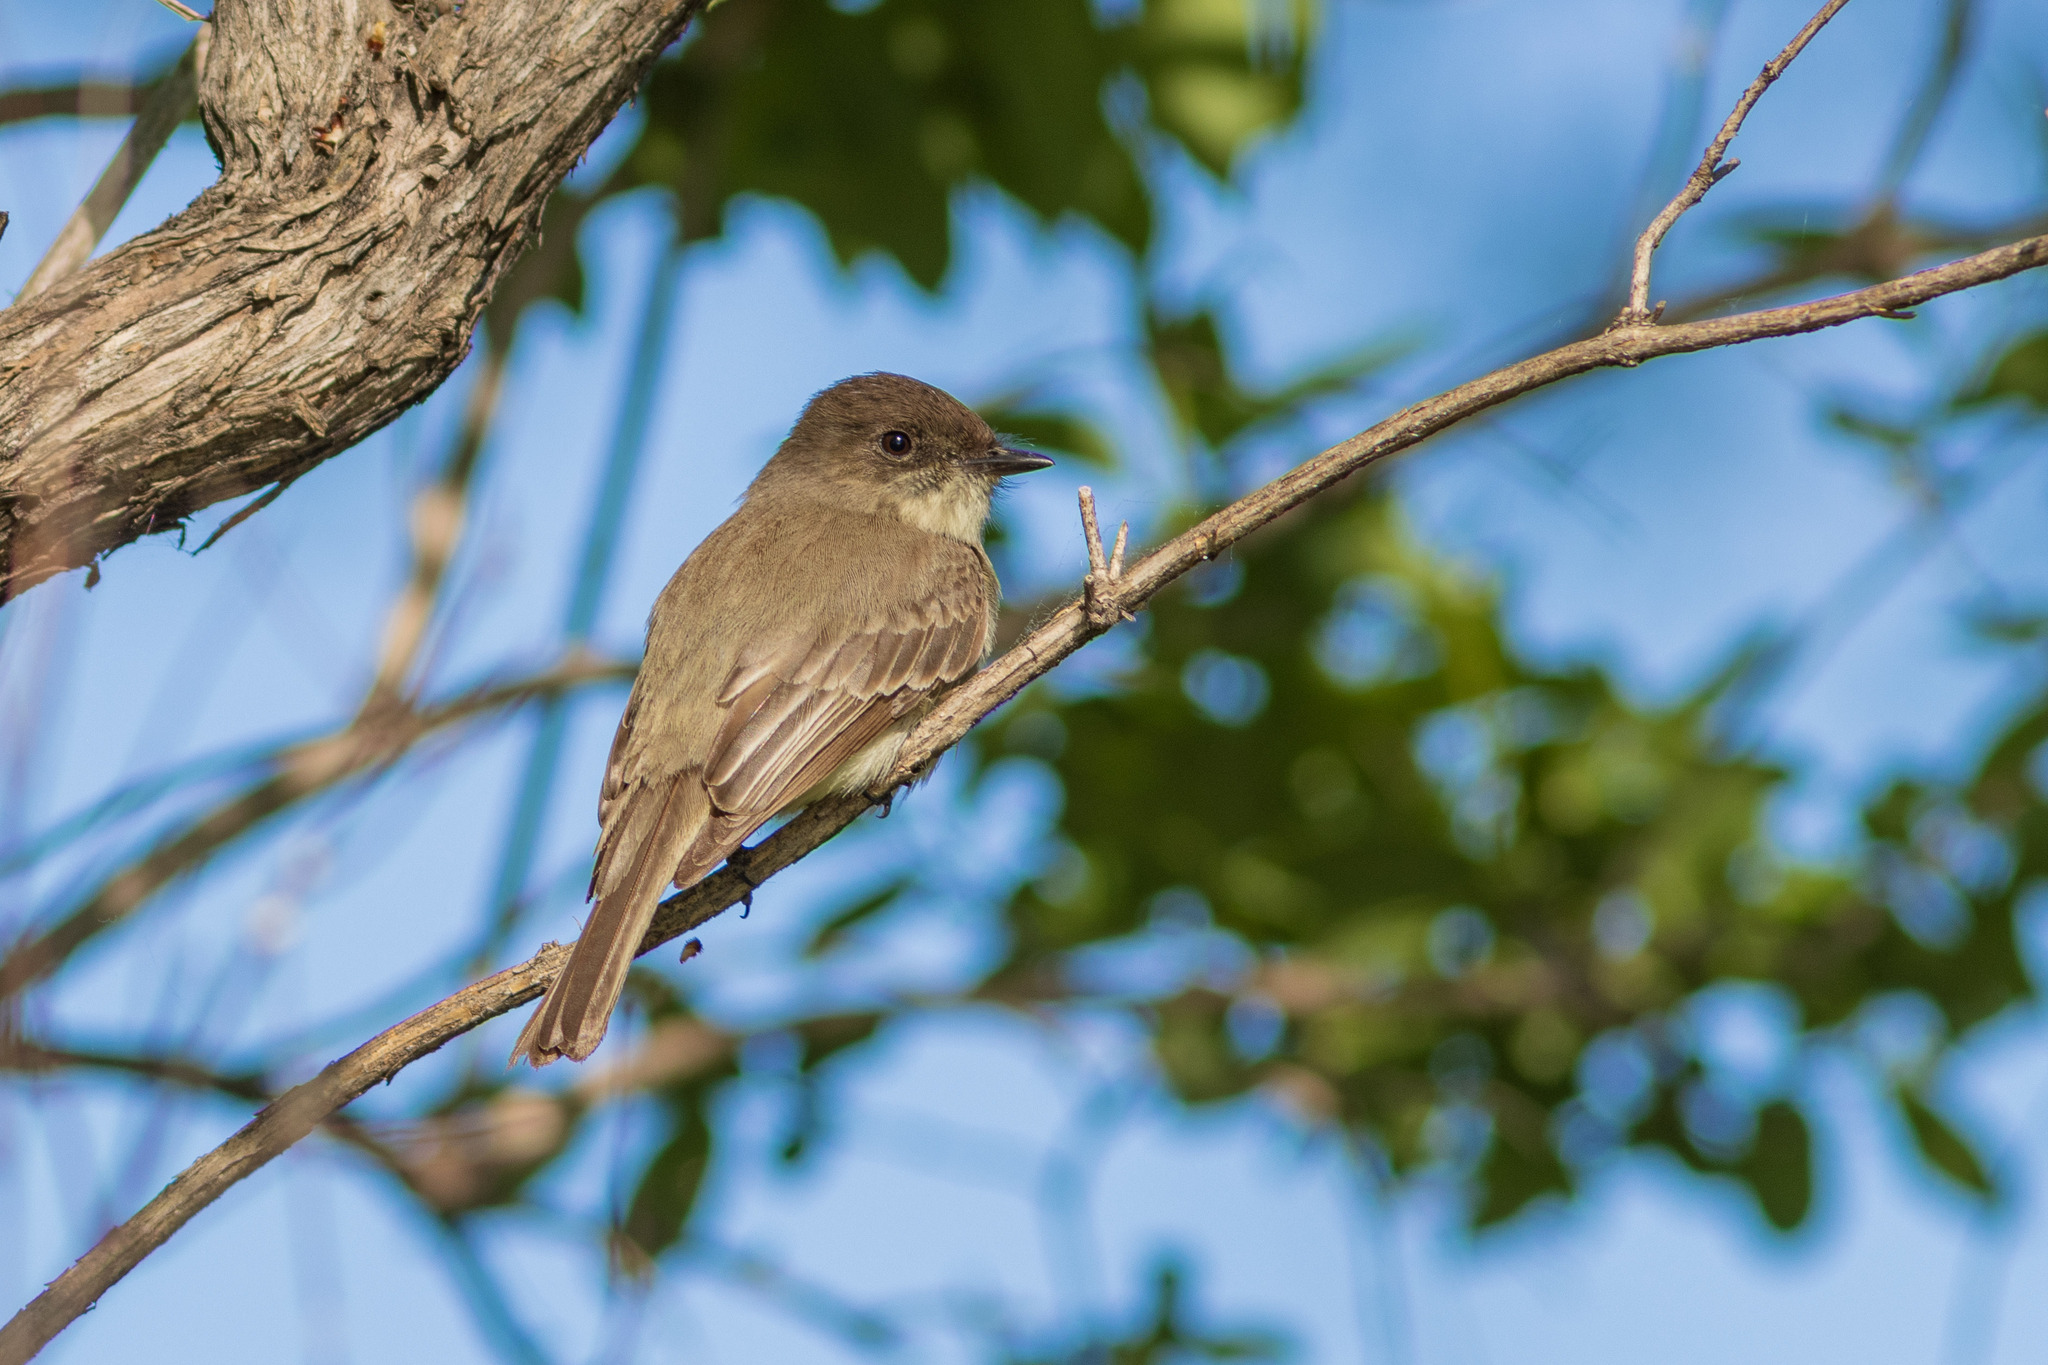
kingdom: Animalia
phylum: Chordata
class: Aves
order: Passeriformes
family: Tyrannidae
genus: Sayornis
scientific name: Sayornis phoebe
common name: Eastern phoebe
